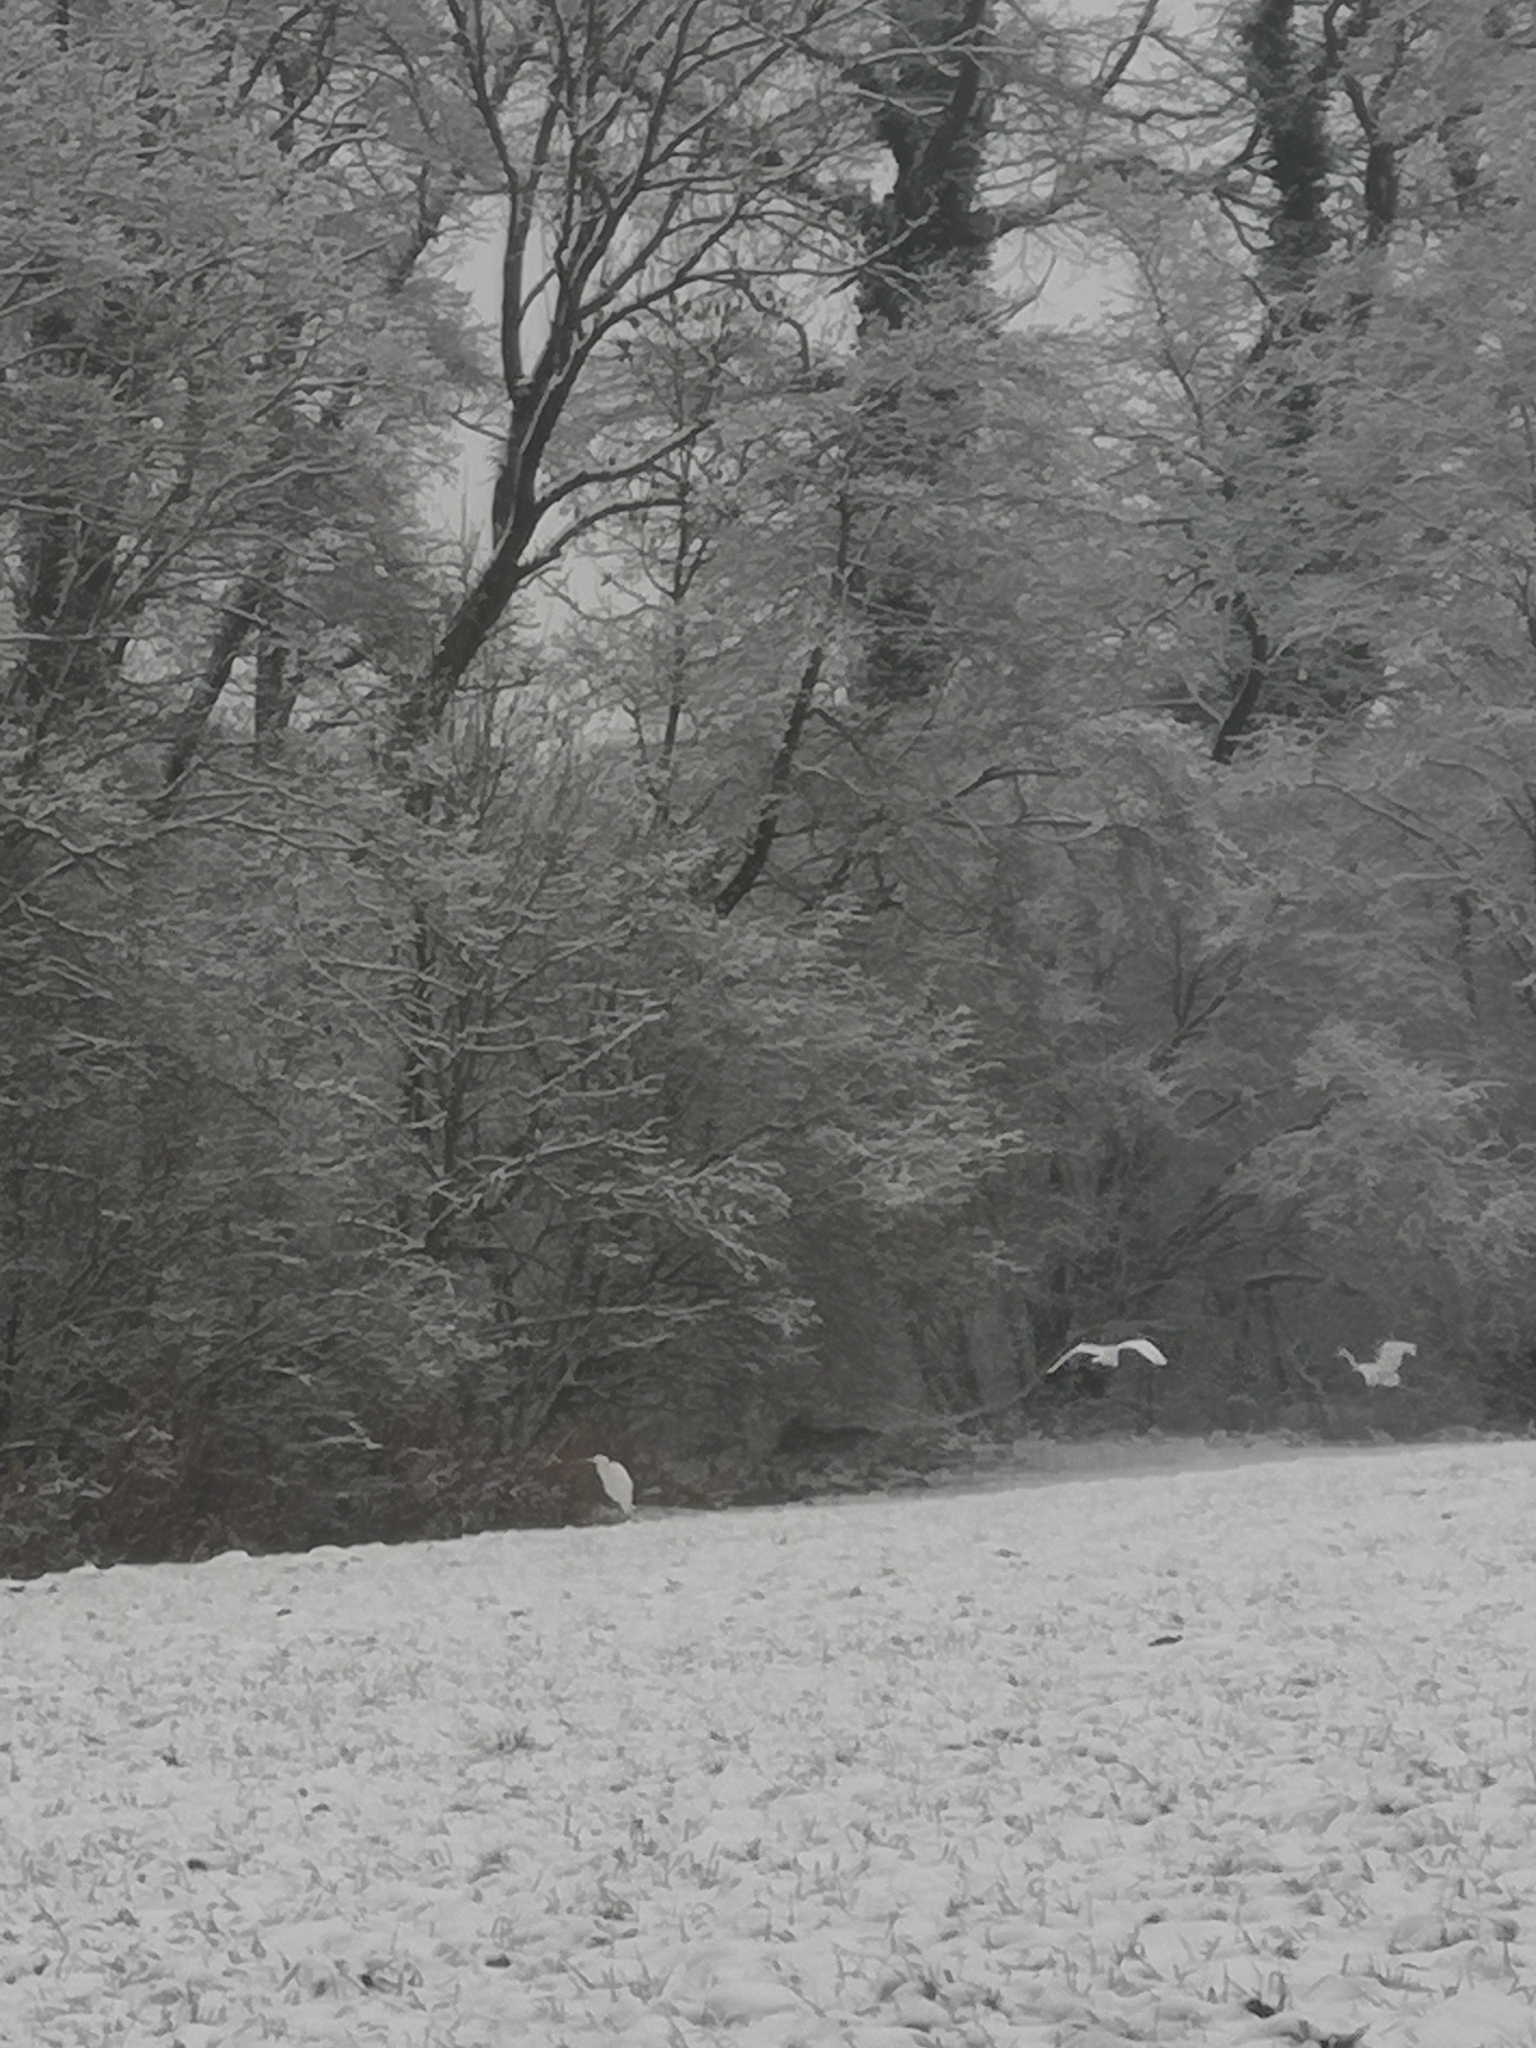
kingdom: Animalia
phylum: Chordata
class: Aves
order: Pelecaniformes
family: Ardeidae
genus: Ardea
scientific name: Ardea alba
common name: Great egret
